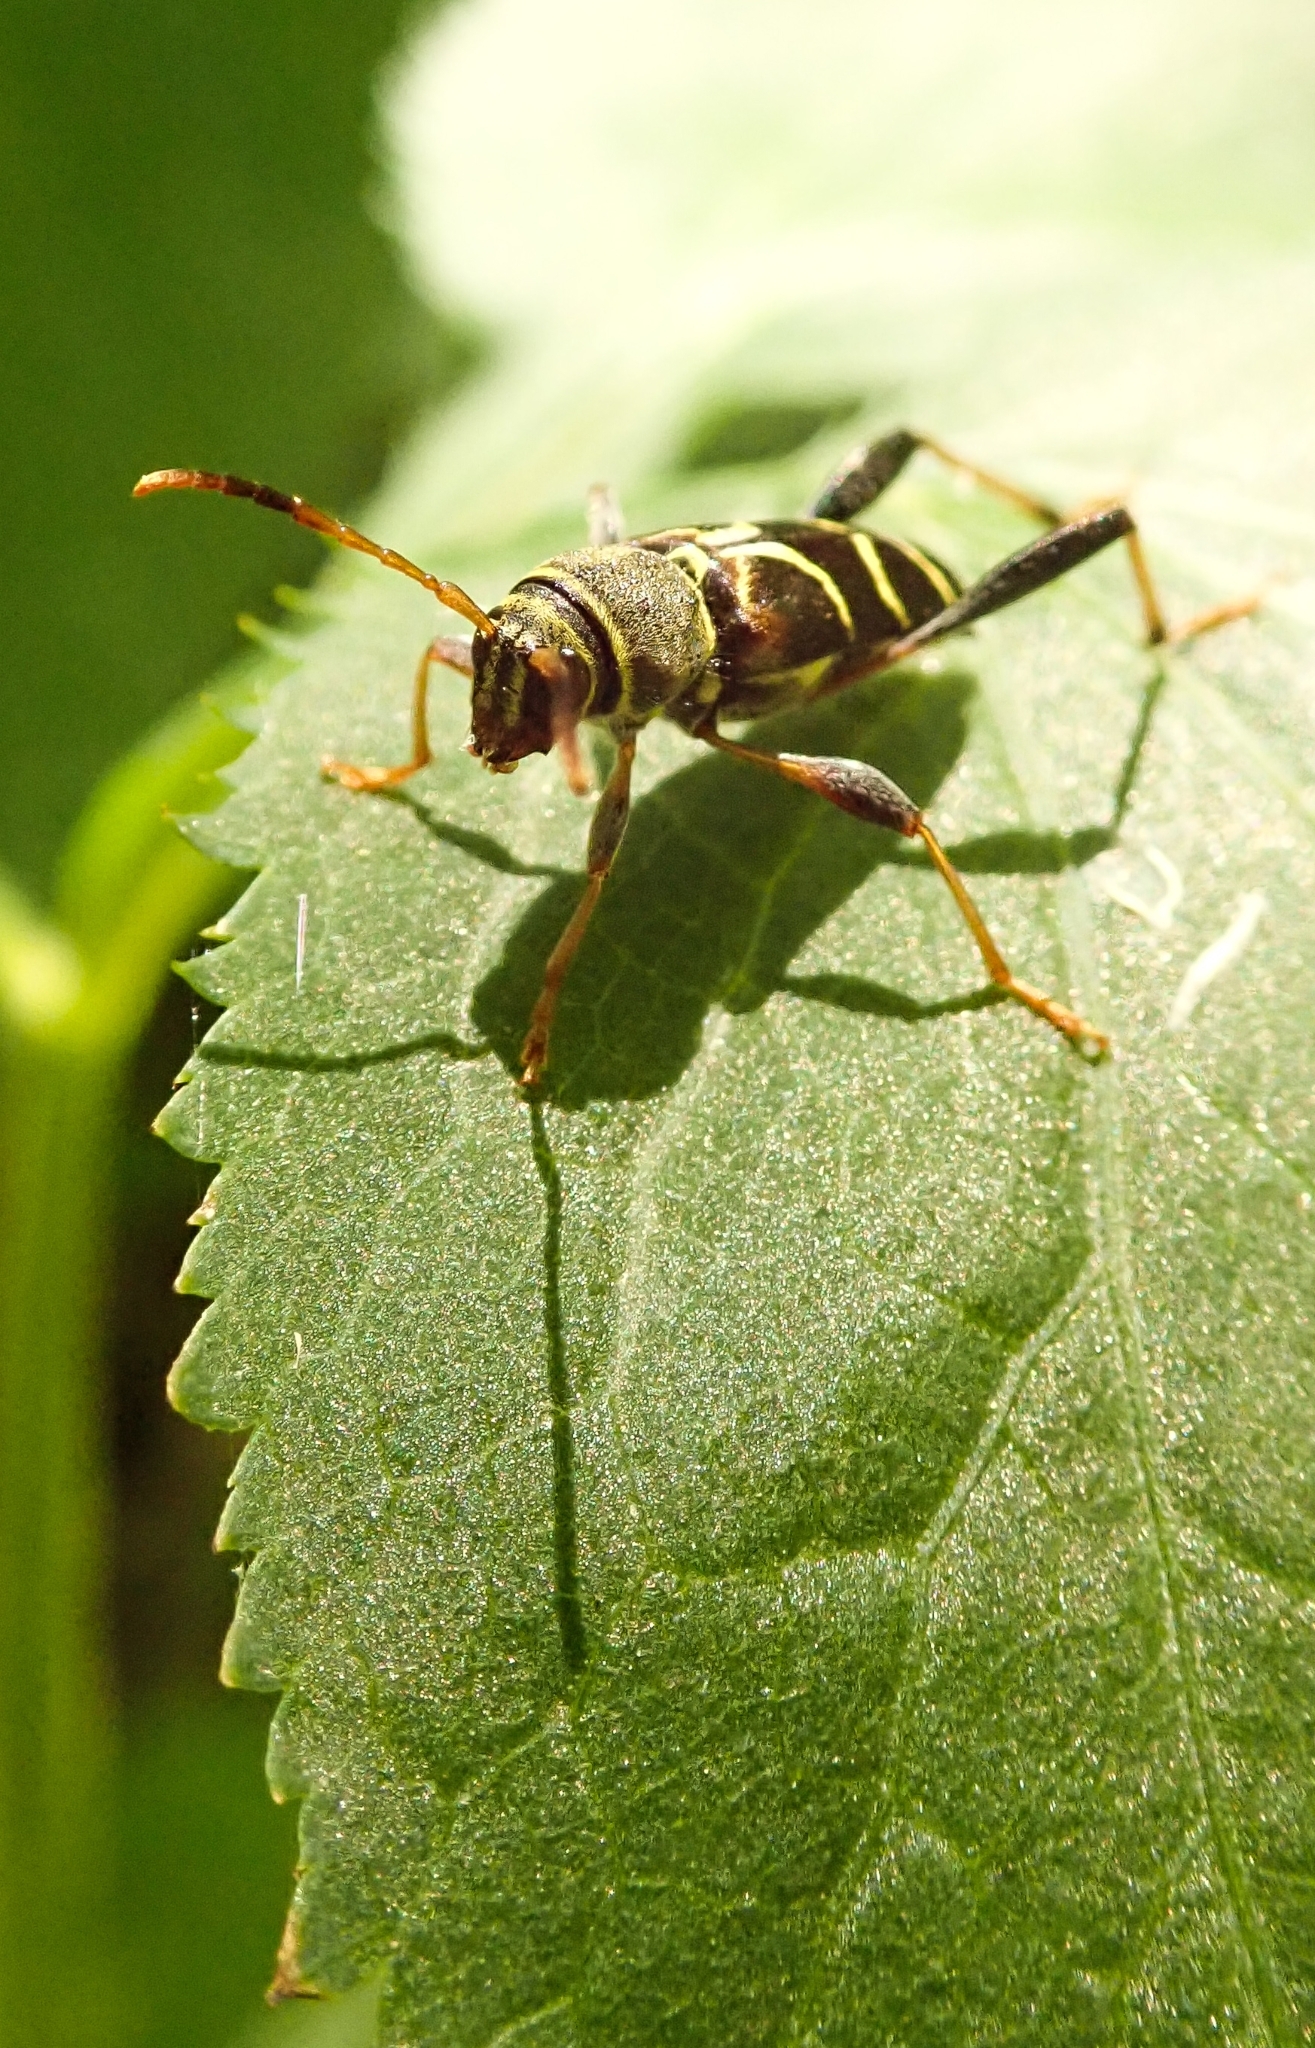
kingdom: Animalia
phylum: Arthropoda
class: Insecta
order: Coleoptera
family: Cerambycidae
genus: Neoclytus
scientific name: Neoclytus mucronatus
